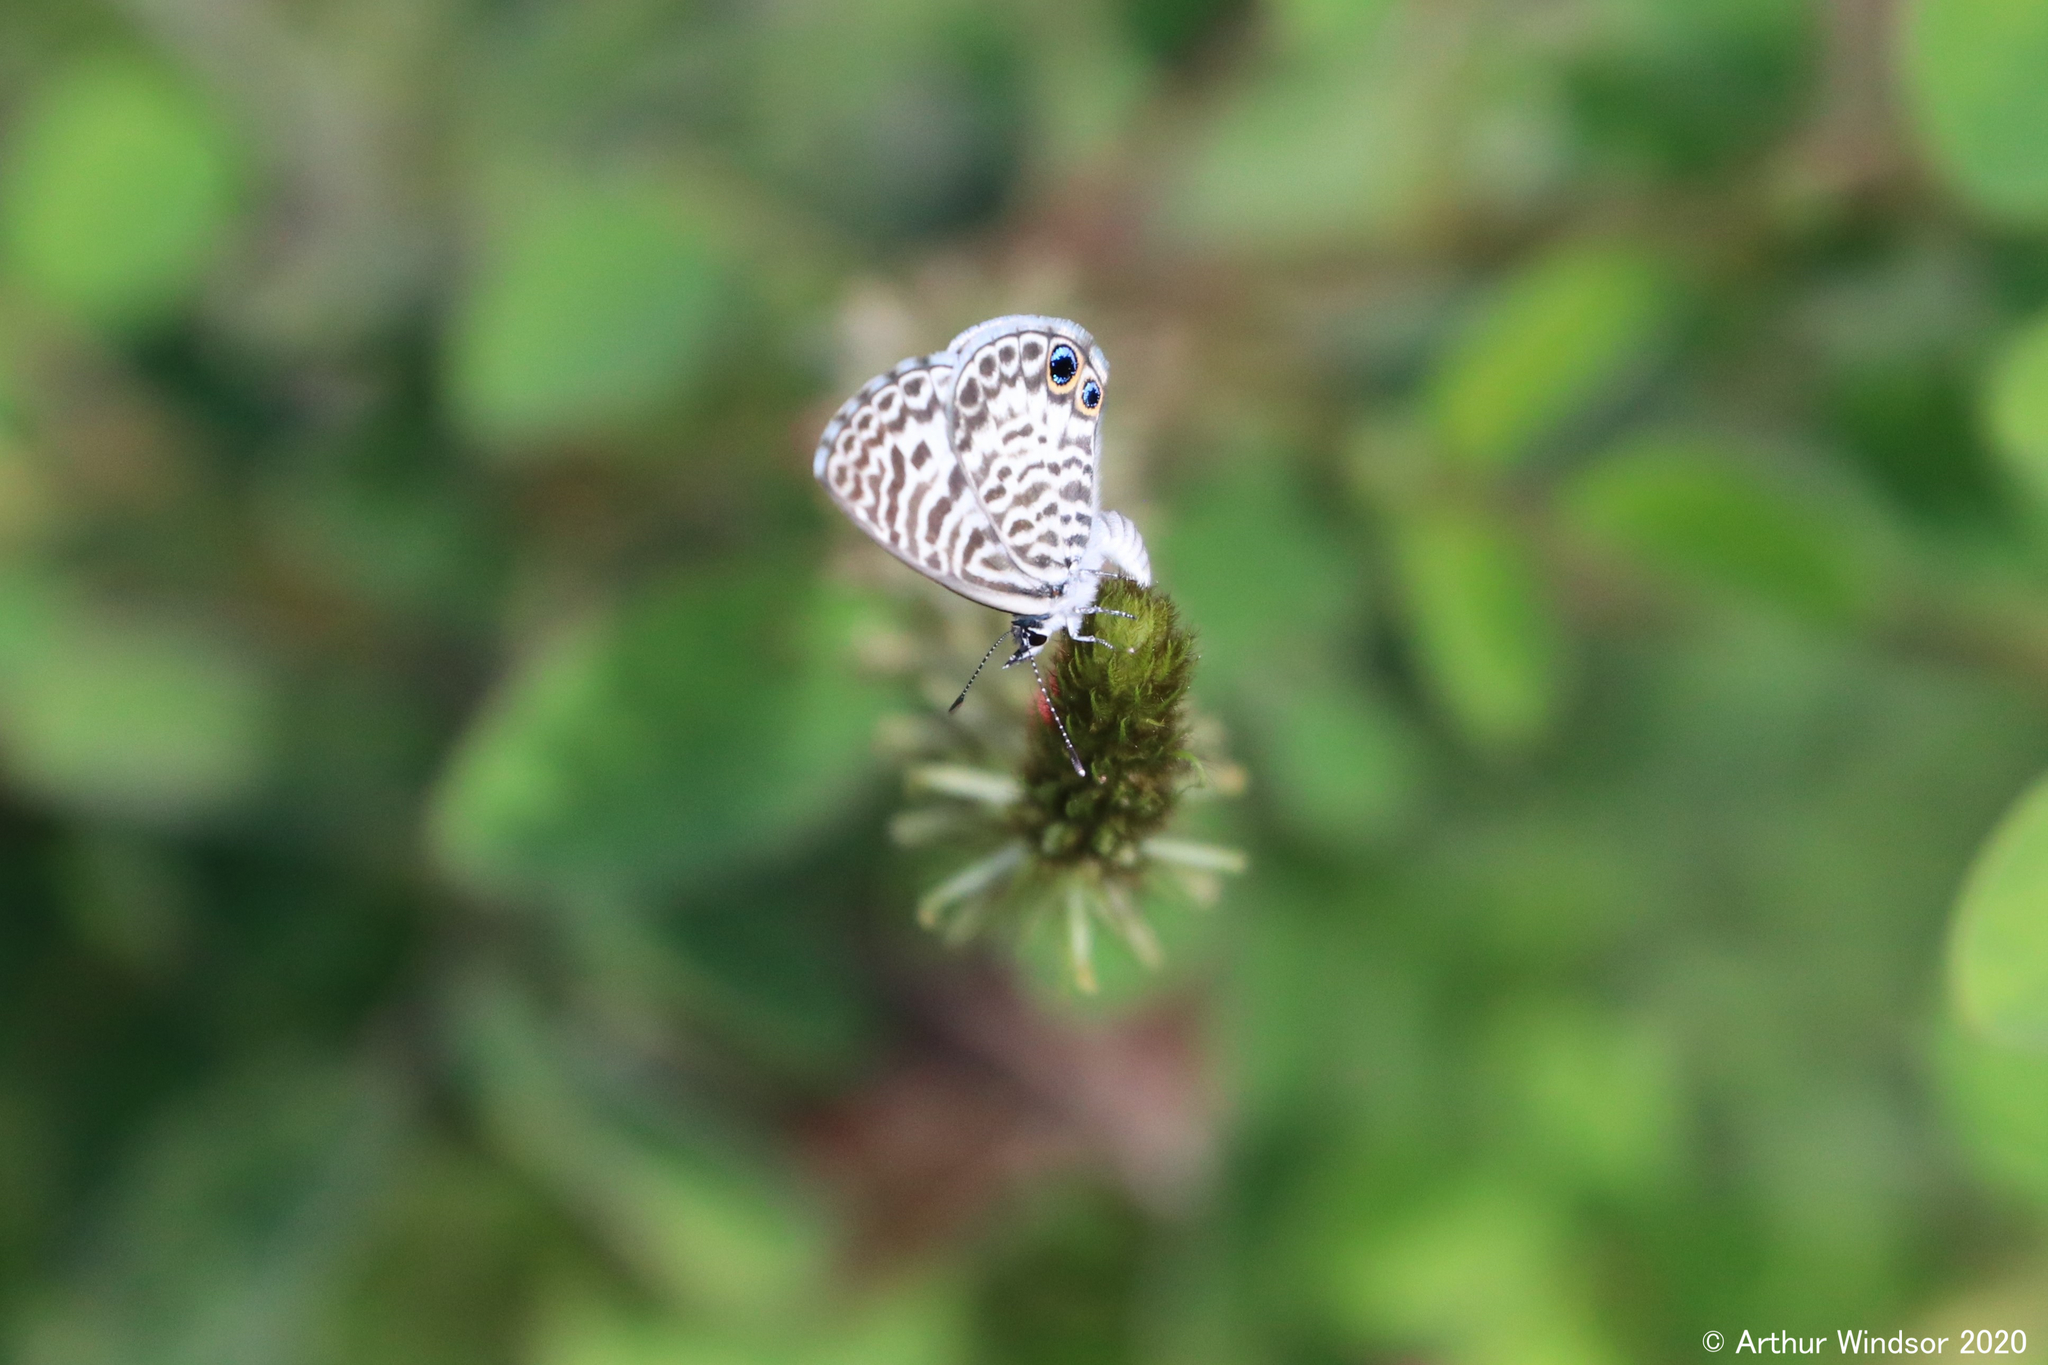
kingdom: Animalia
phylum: Arthropoda
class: Insecta
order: Lepidoptera
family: Lycaenidae
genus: Leptotes
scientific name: Leptotes cassius
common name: Cassius blue
